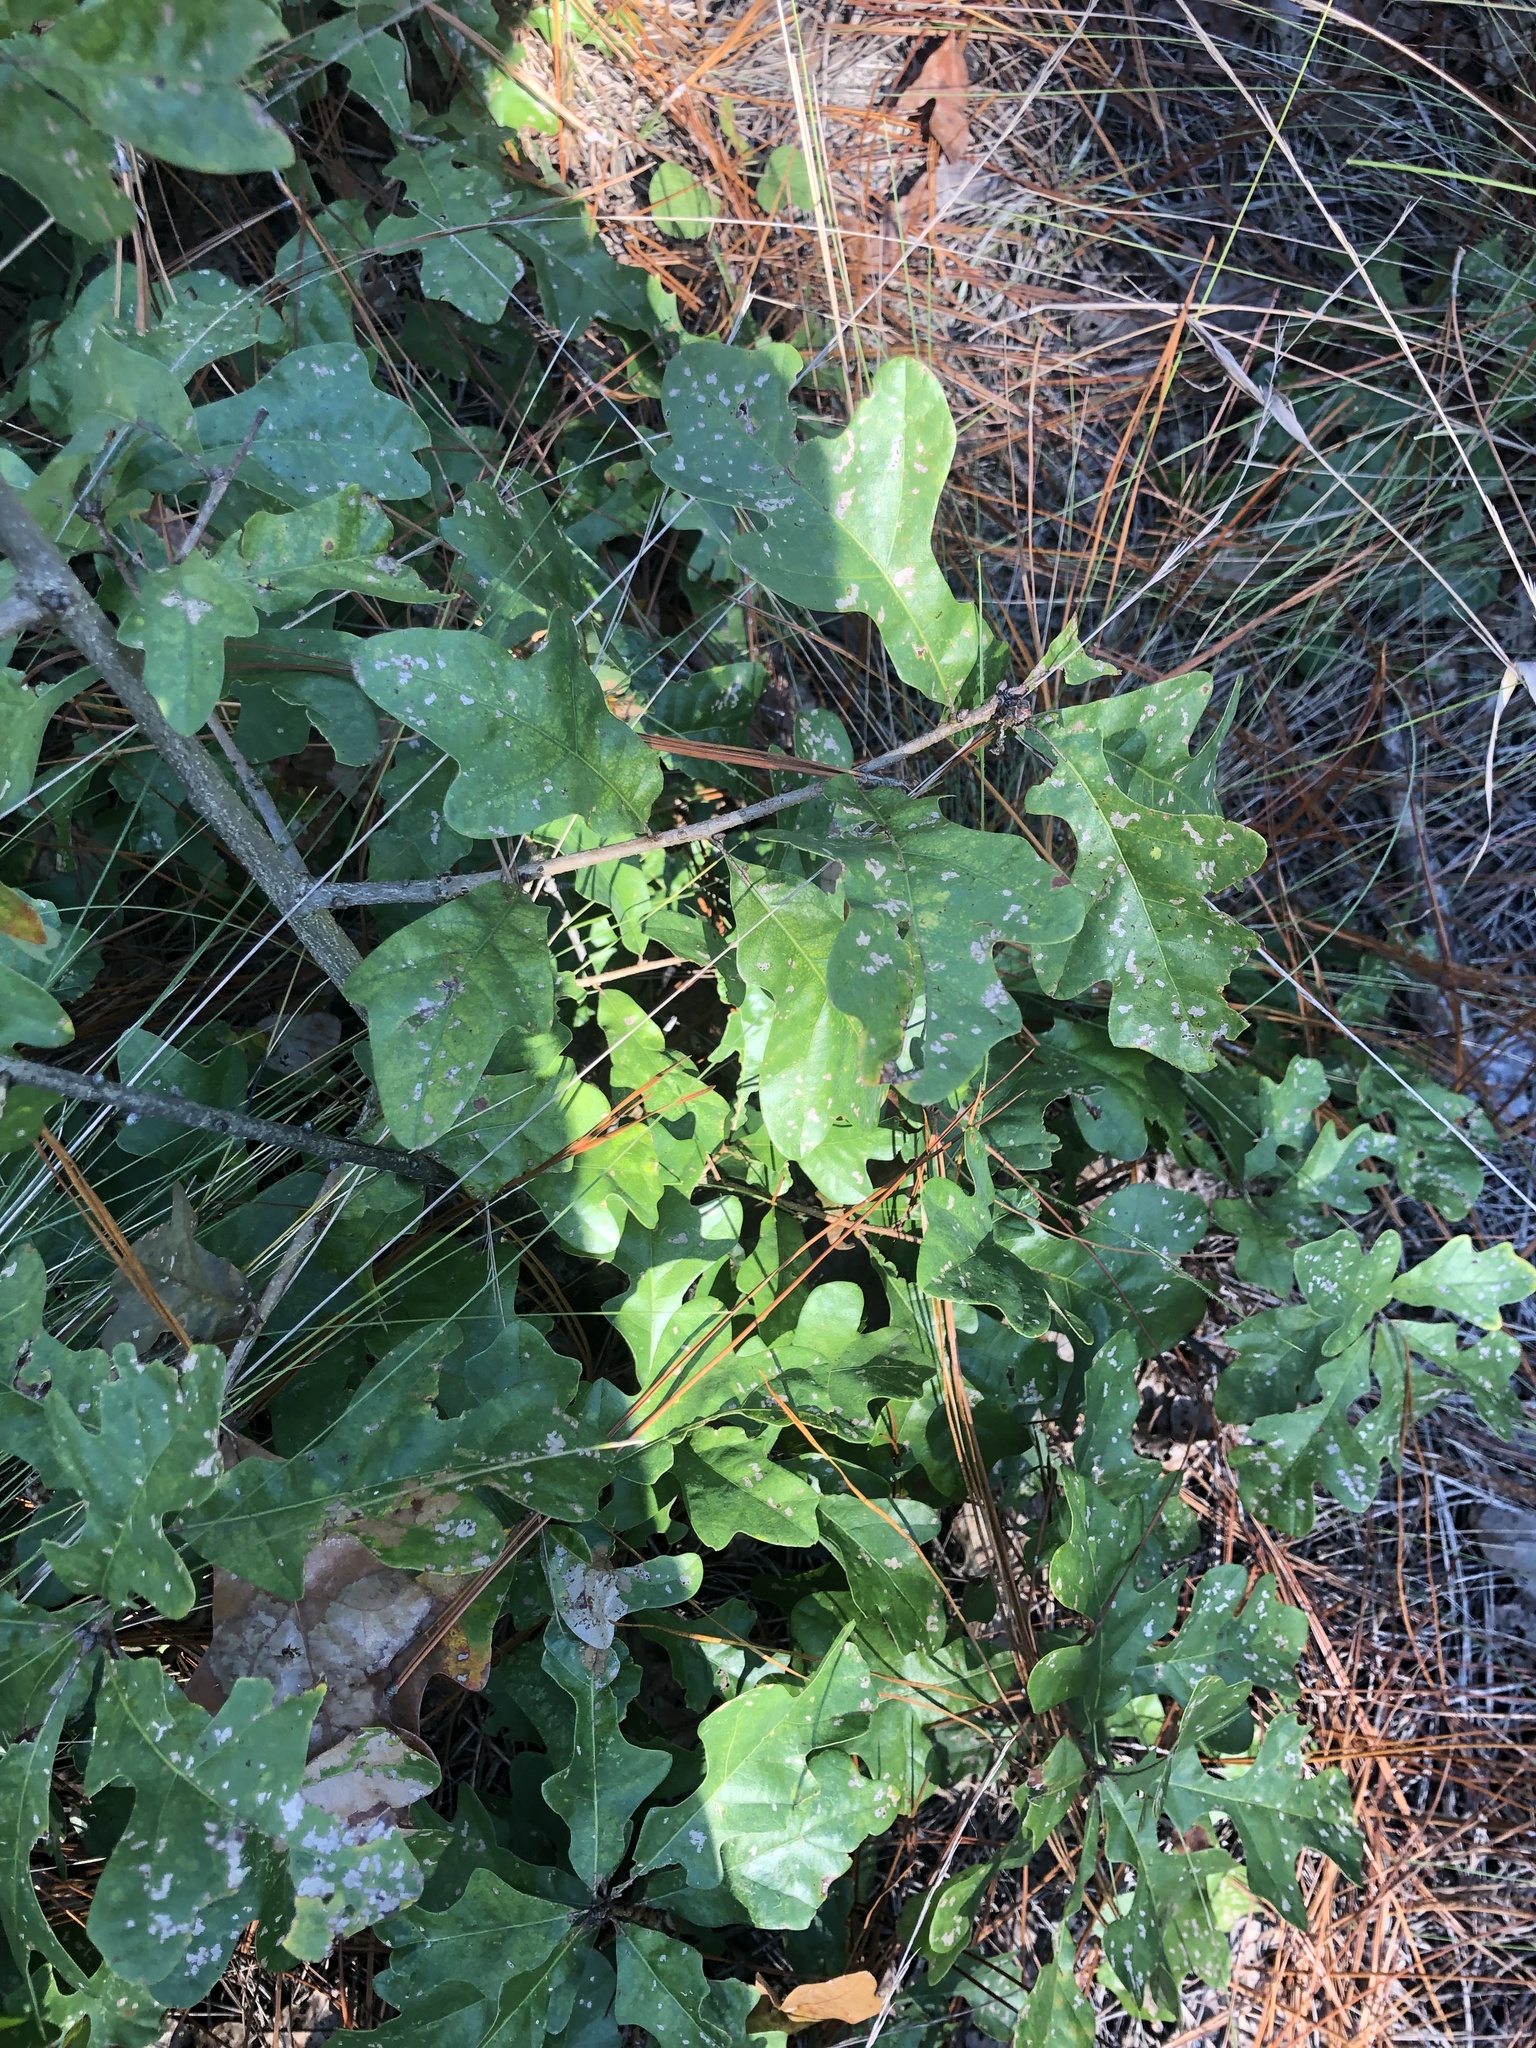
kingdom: Plantae
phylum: Tracheophyta
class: Magnoliopsida
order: Fagales
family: Fagaceae
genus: Quercus
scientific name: Quercus margaretiae
